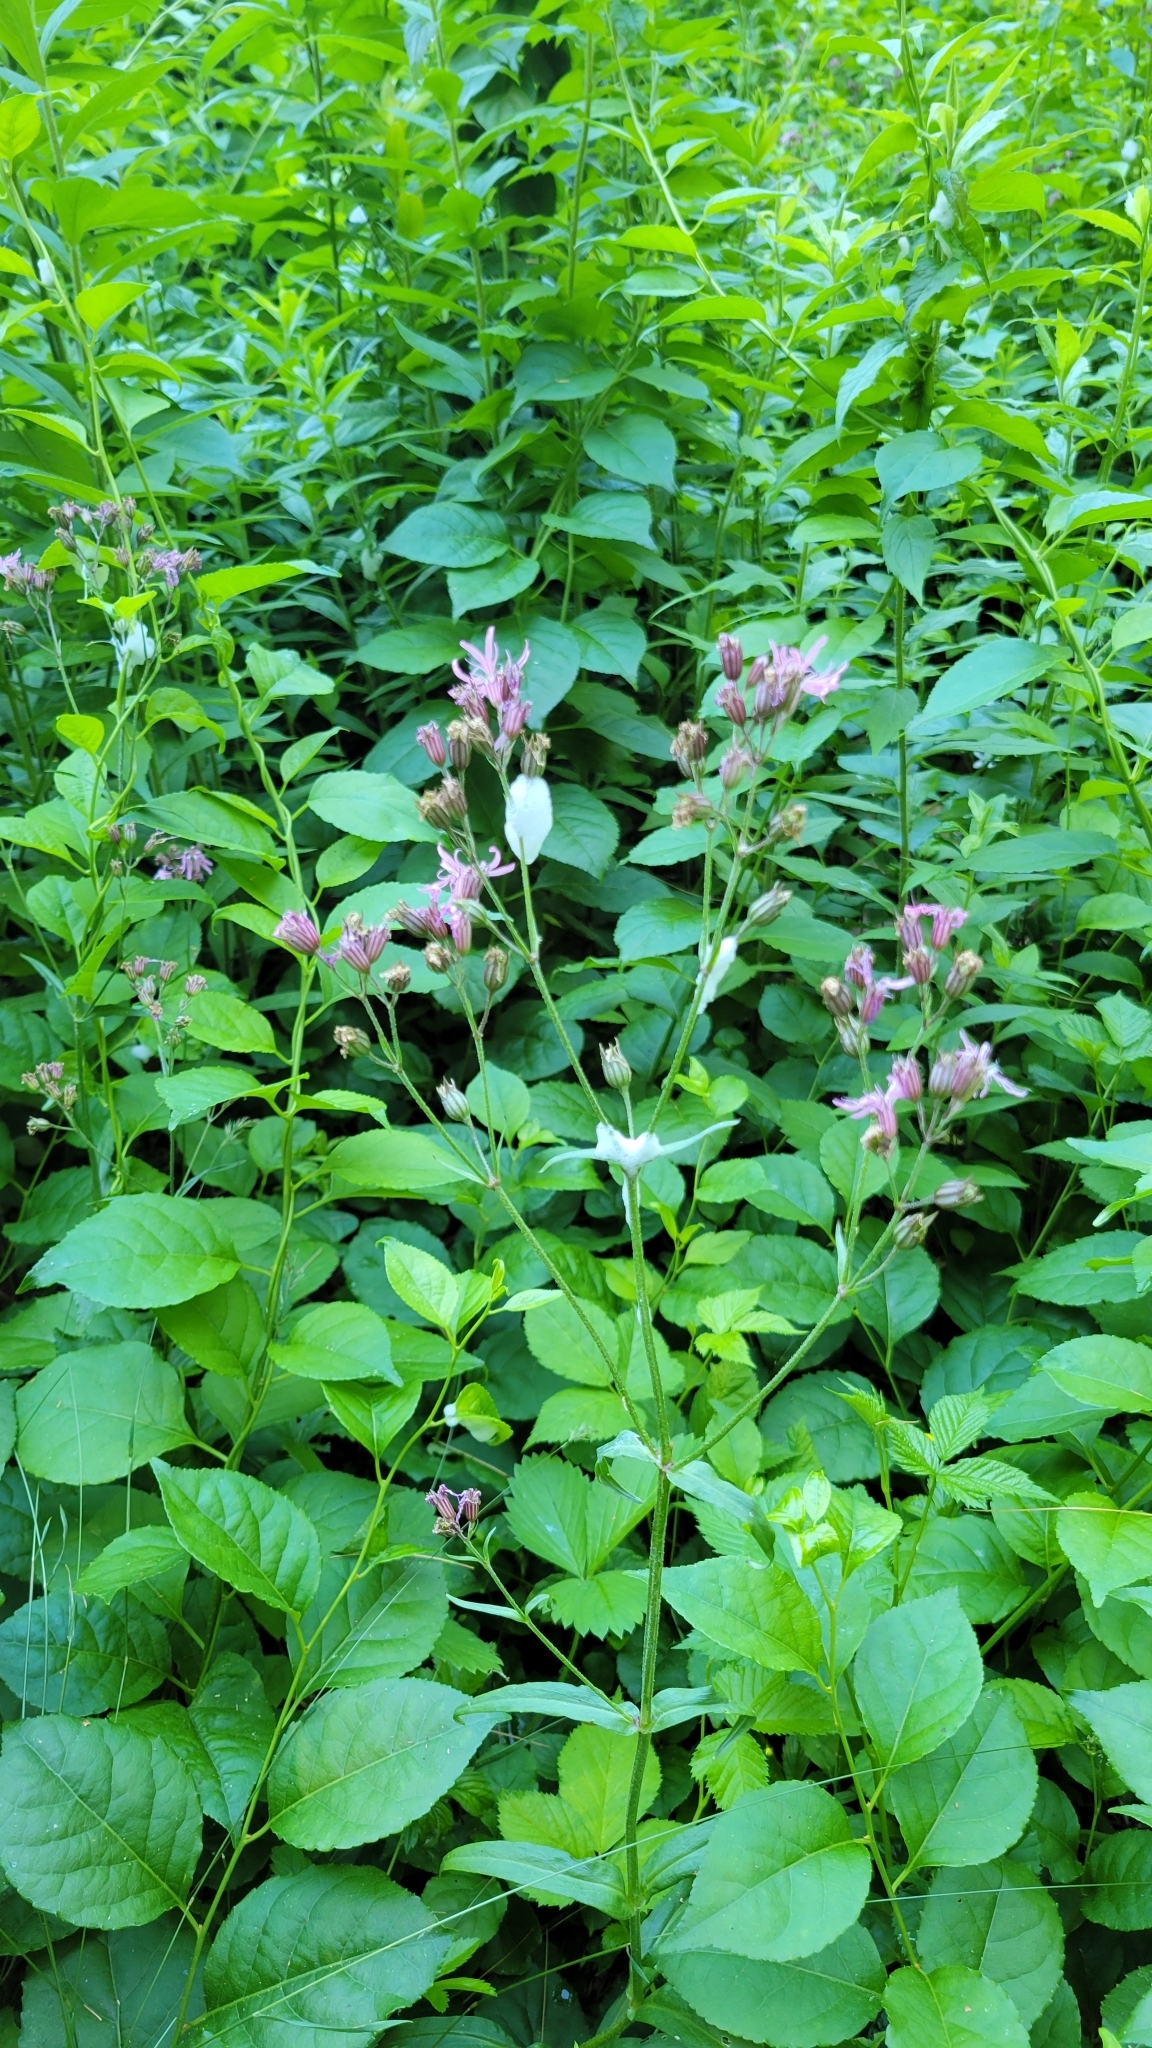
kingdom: Plantae
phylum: Tracheophyta
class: Magnoliopsida
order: Caryophyllales
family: Caryophyllaceae
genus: Silene
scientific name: Silene flos-cuculi
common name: Ragged-robin
